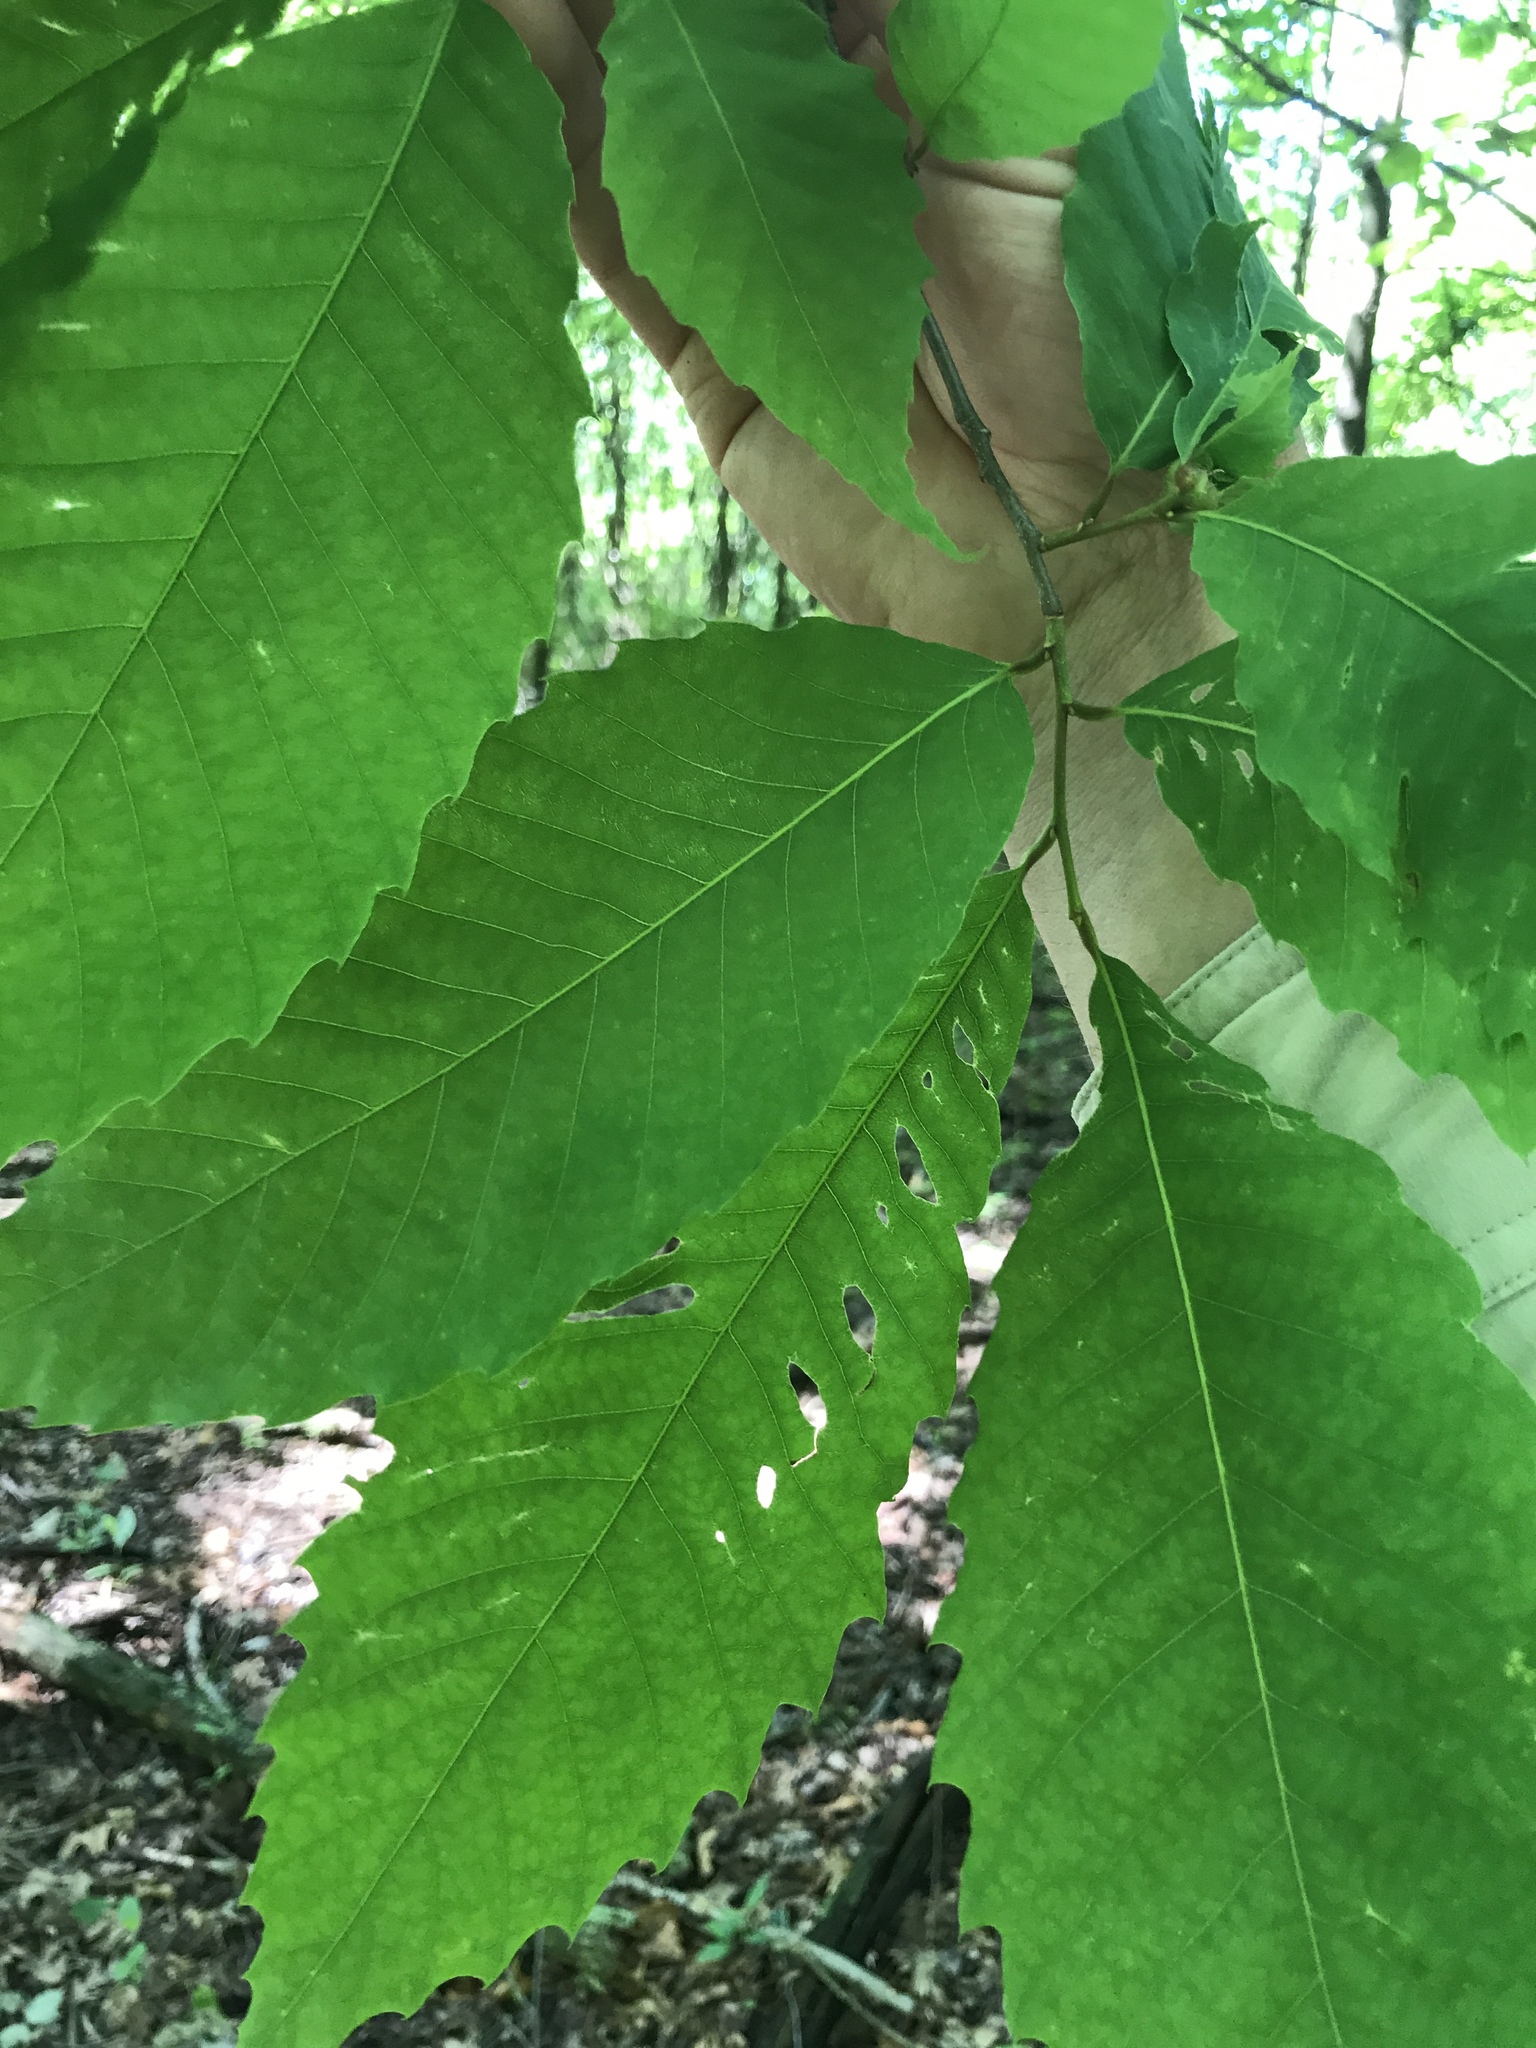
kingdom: Plantae
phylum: Tracheophyta
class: Magnoliopsida
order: Fagales
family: Fagaceae
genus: Castanea
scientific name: Castanea dentata
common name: American chestnut
